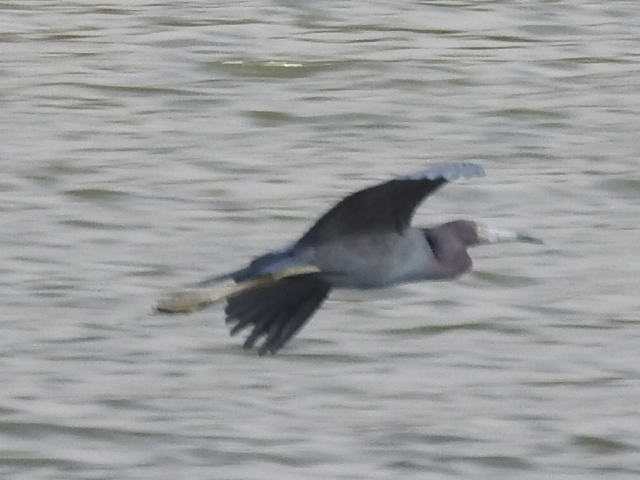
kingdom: Animalia
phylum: Chordata
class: Aves
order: Pelecaniformes
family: Ardeidae
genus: Egretta
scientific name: Egretta caerulea
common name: Little blue heron
